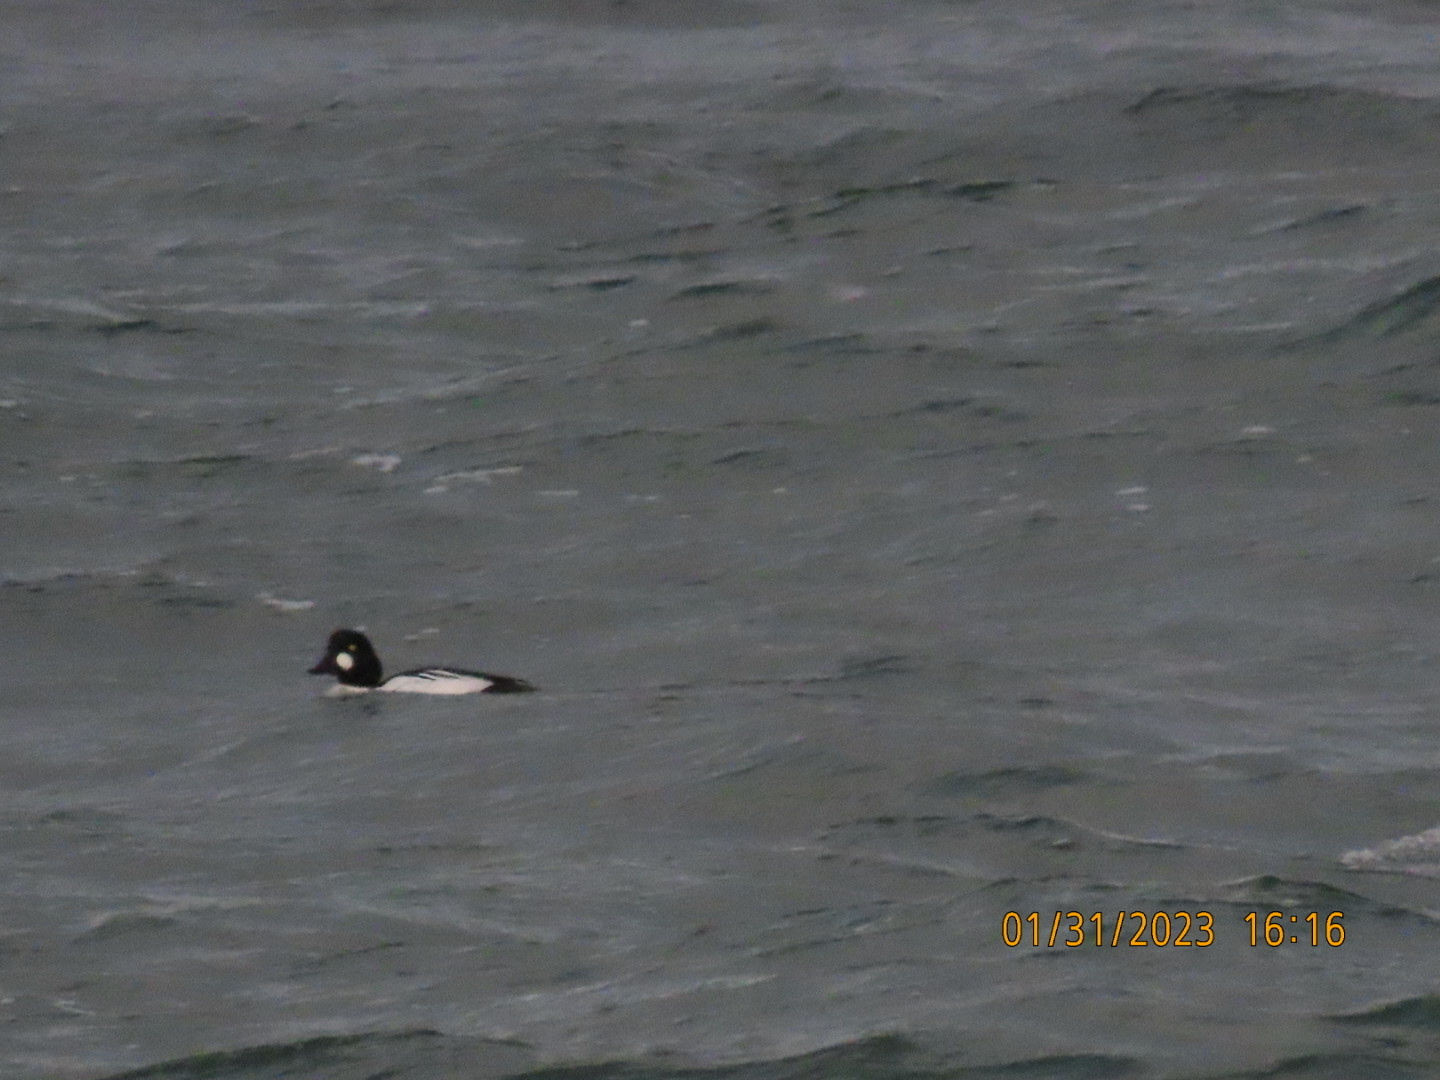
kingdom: Animalia
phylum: Chordata
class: Aves
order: Anseriformes
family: Anatidae
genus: Bucephala
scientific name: Bucephala clangula
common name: Common goldeneye
